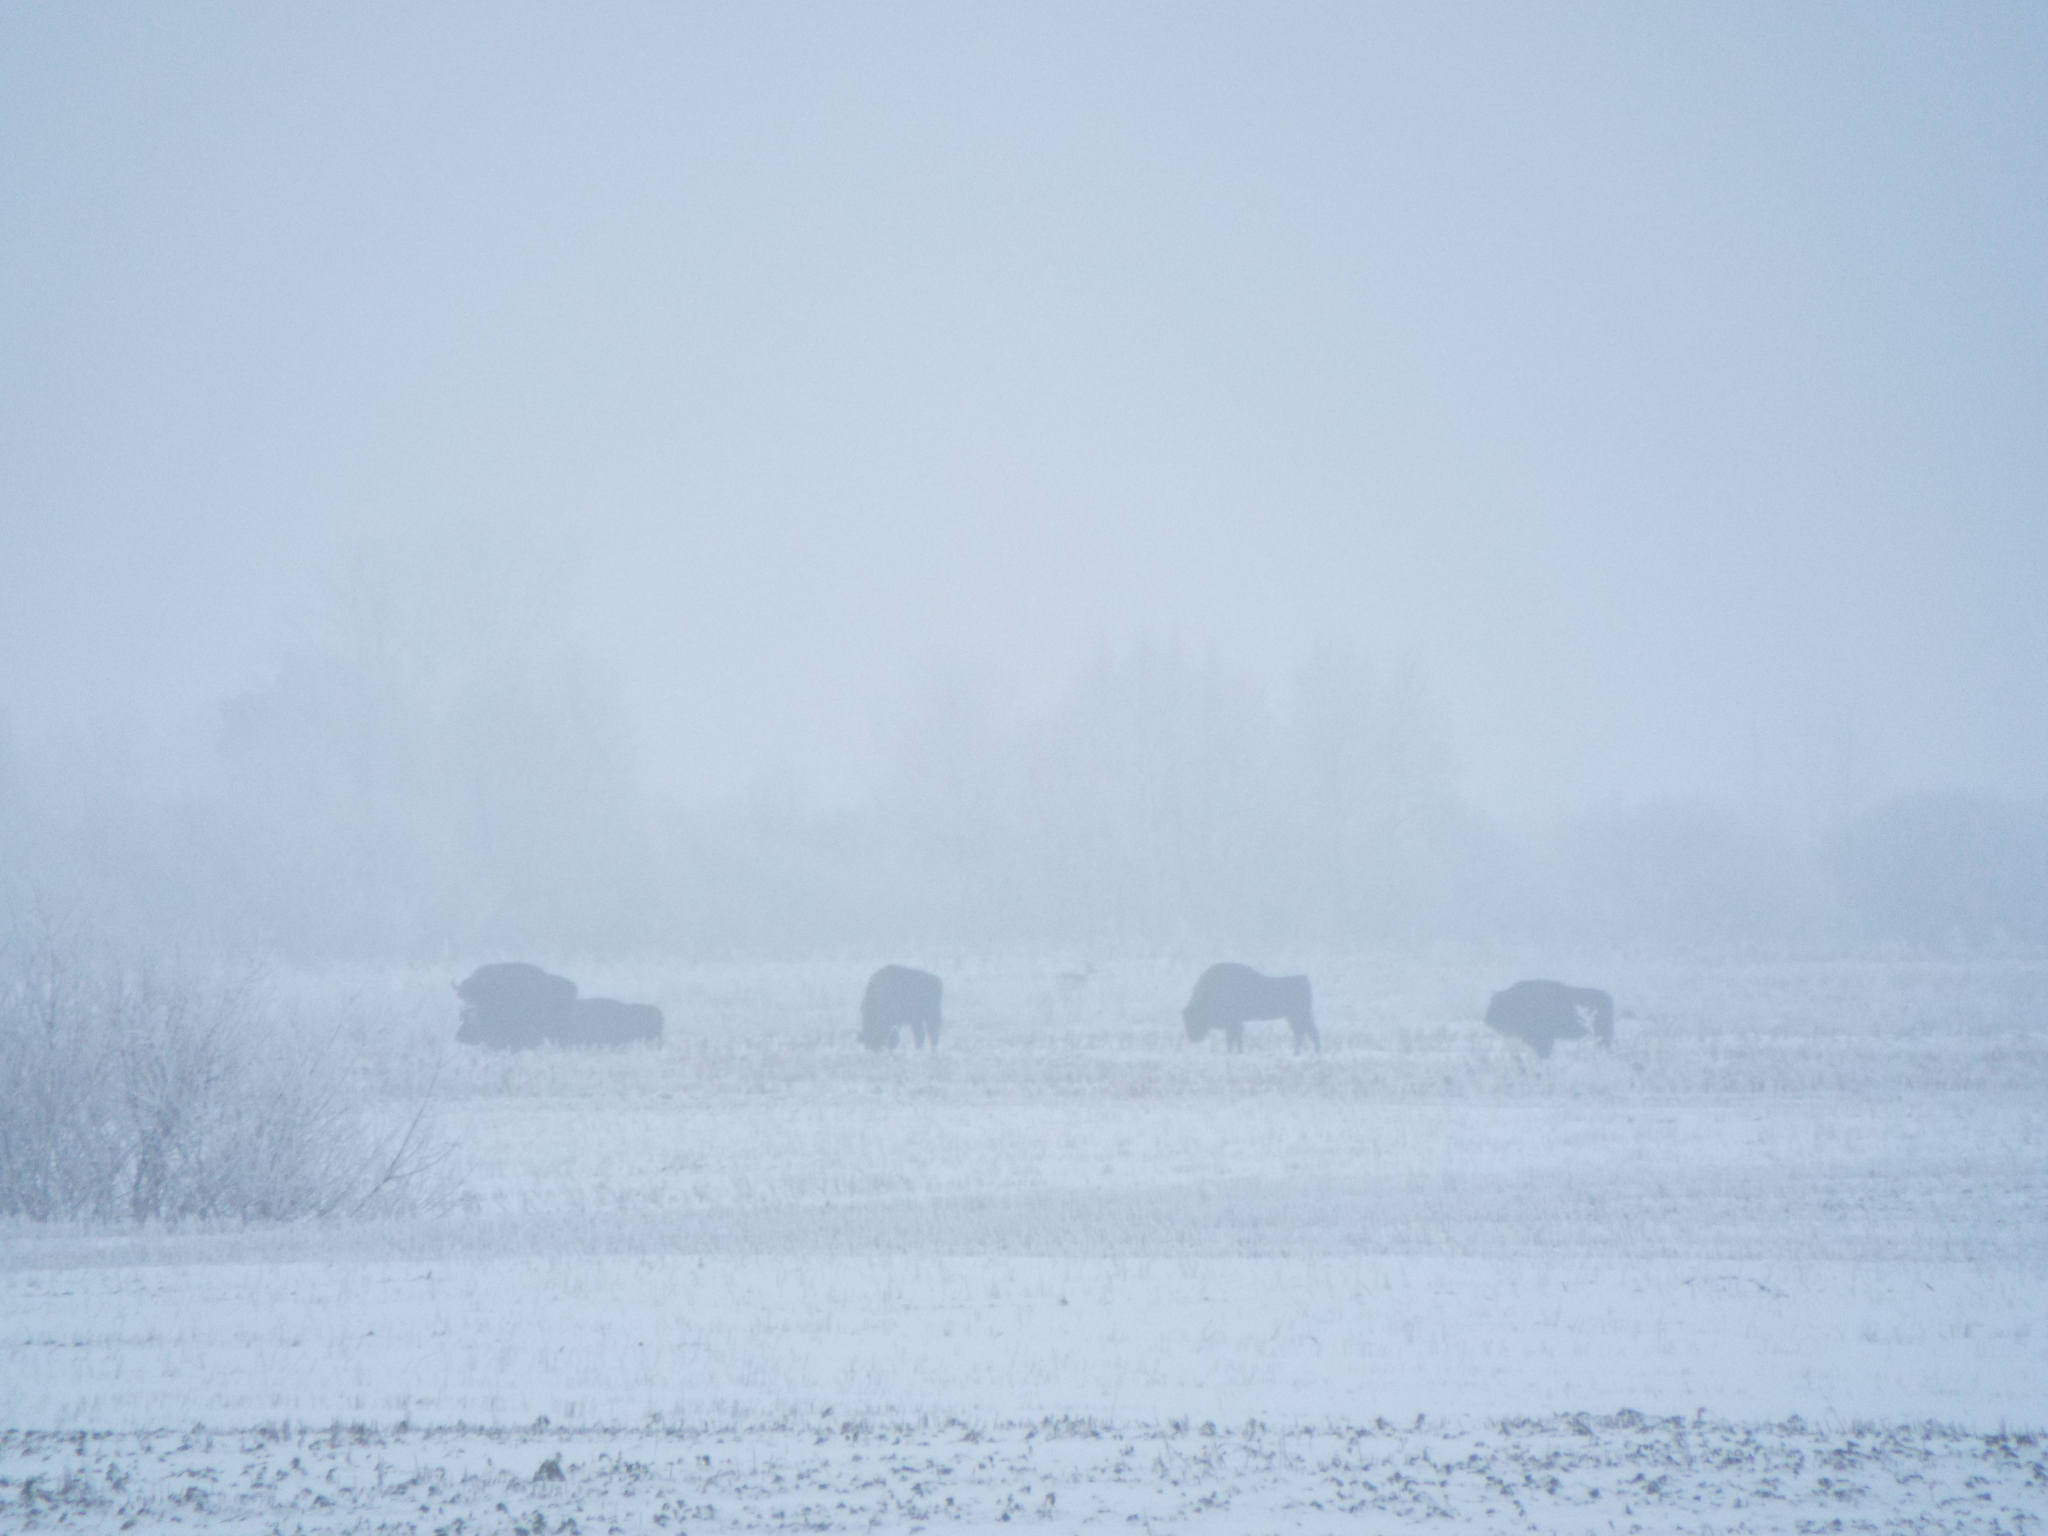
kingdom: Animalia
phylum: Chordata
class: Mammalia
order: Artiodactyla
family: Bovidae
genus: Bison
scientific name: Bison bonasus
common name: European bison
